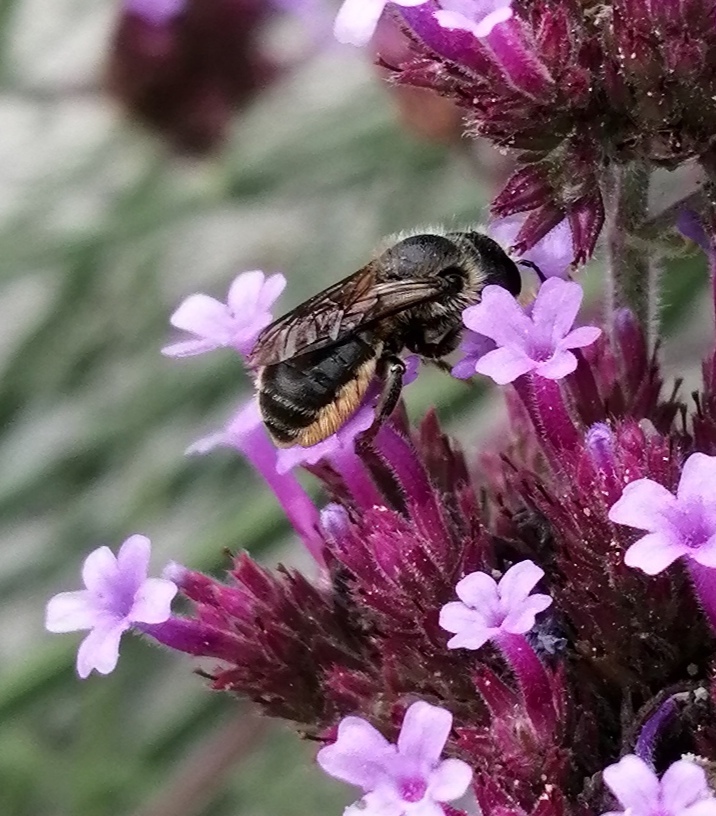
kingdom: Animalia
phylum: Arthropoda
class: Insecta
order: Hymenoptera
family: Megachilidae
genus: Osmia
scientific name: Osmia leaiana
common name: Orange-vented mason bee
